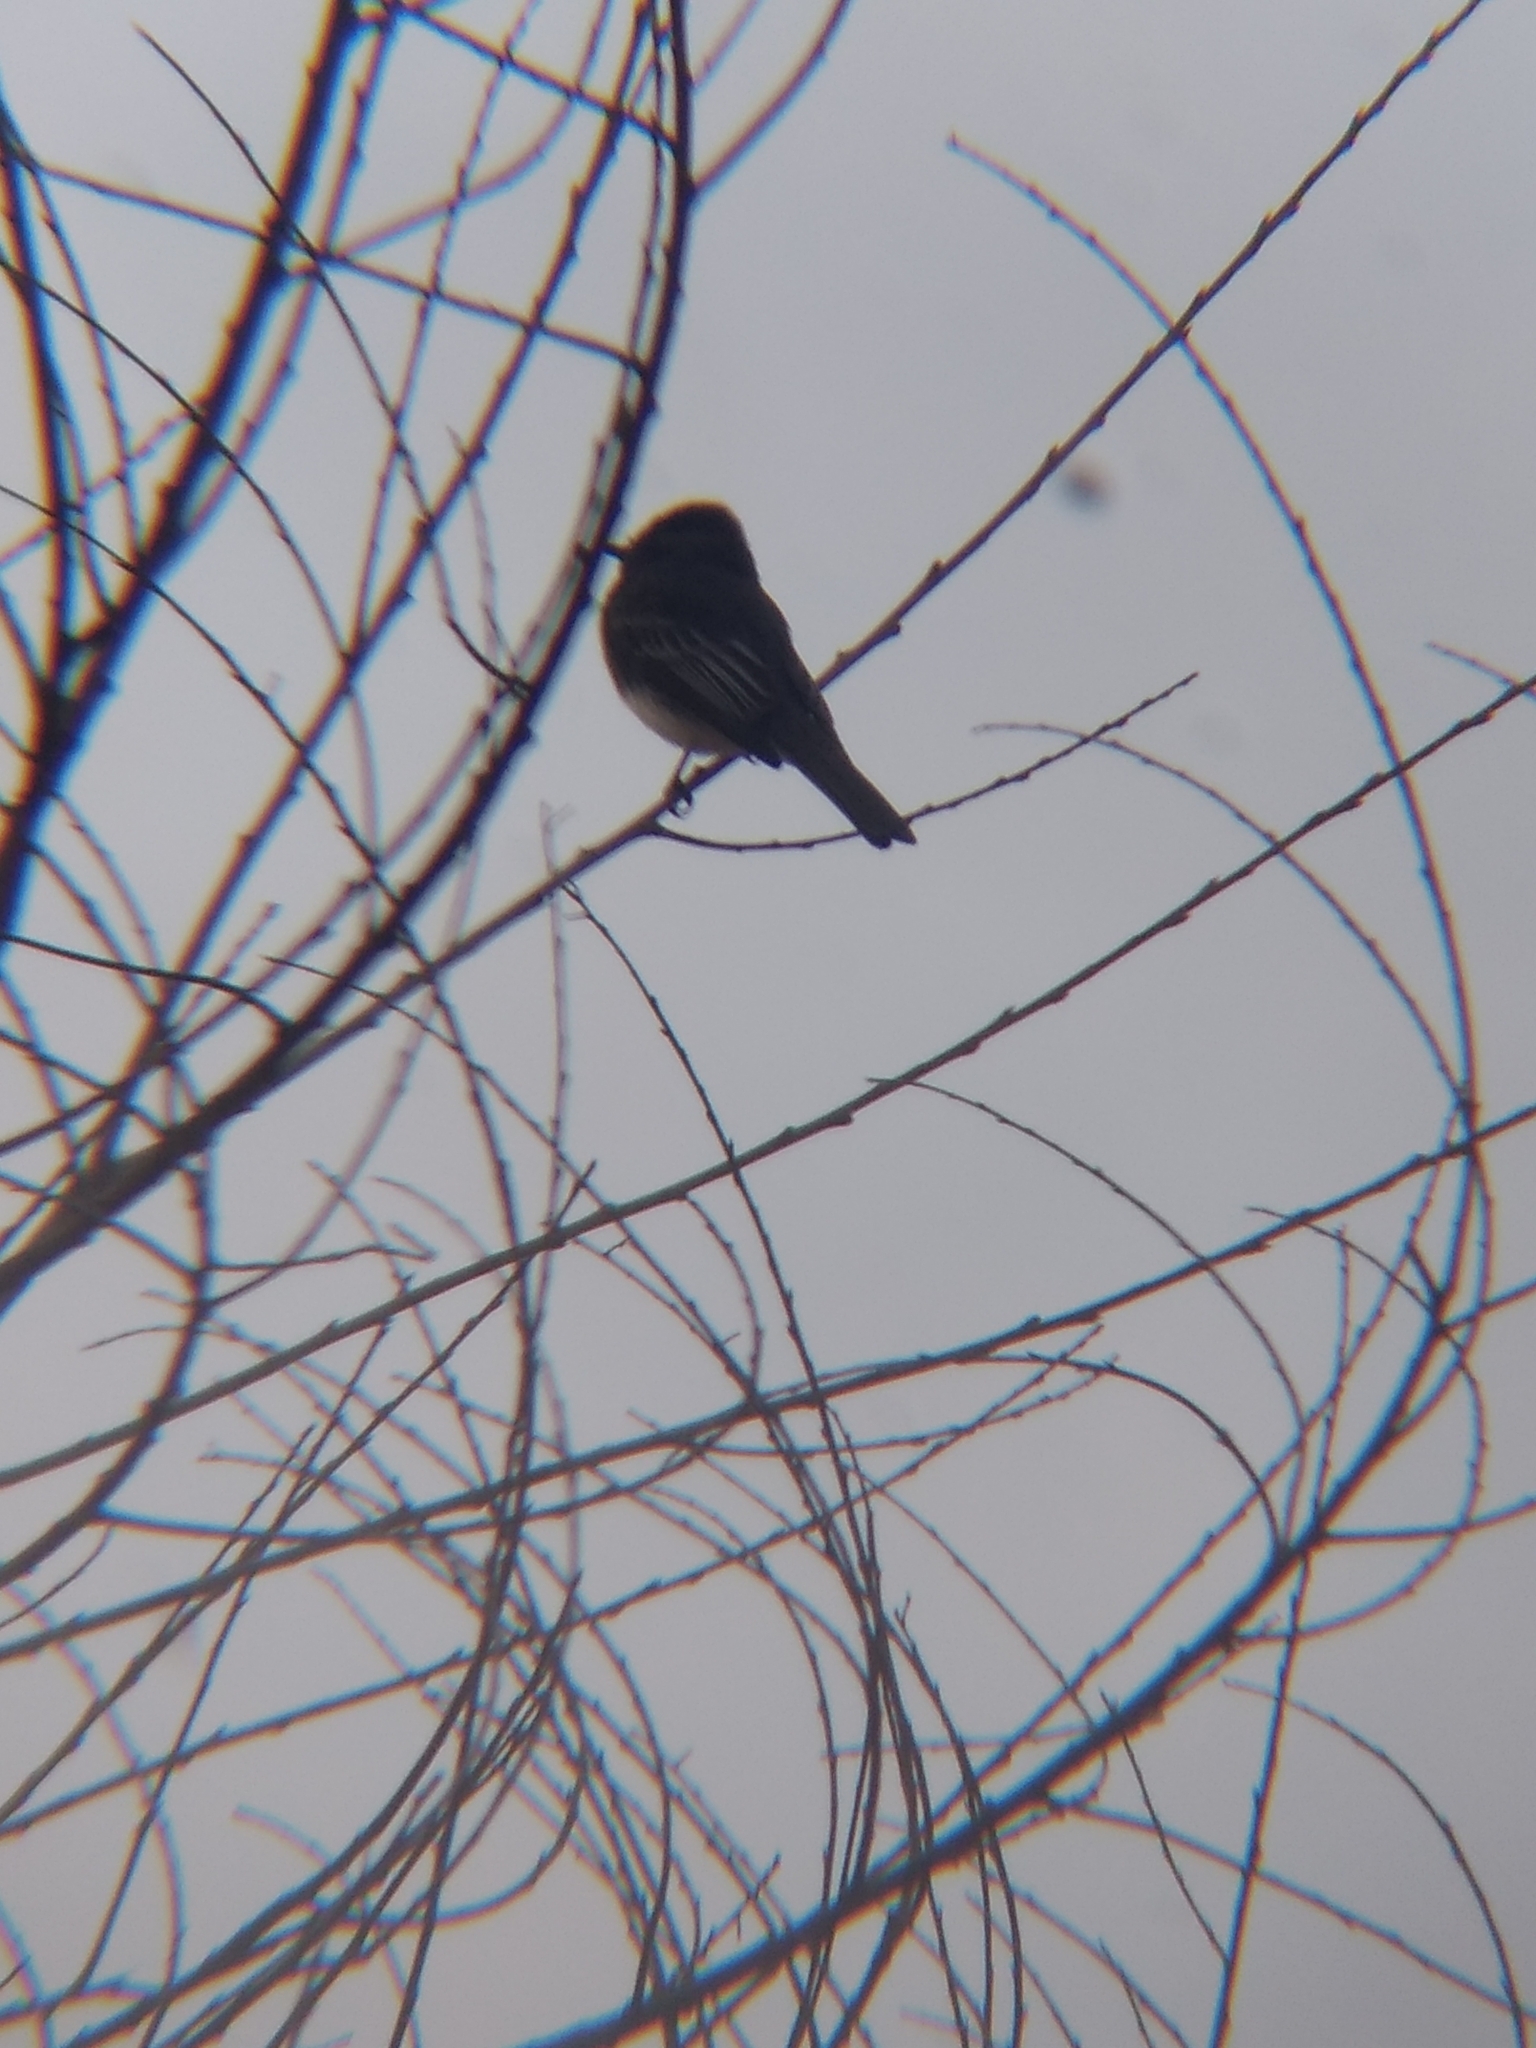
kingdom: Animalia
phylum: Chordata
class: Aves
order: Passeriformes
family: Tyrannidae
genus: Sayornis
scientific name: Sayornis nigricans
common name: Black phoebe
